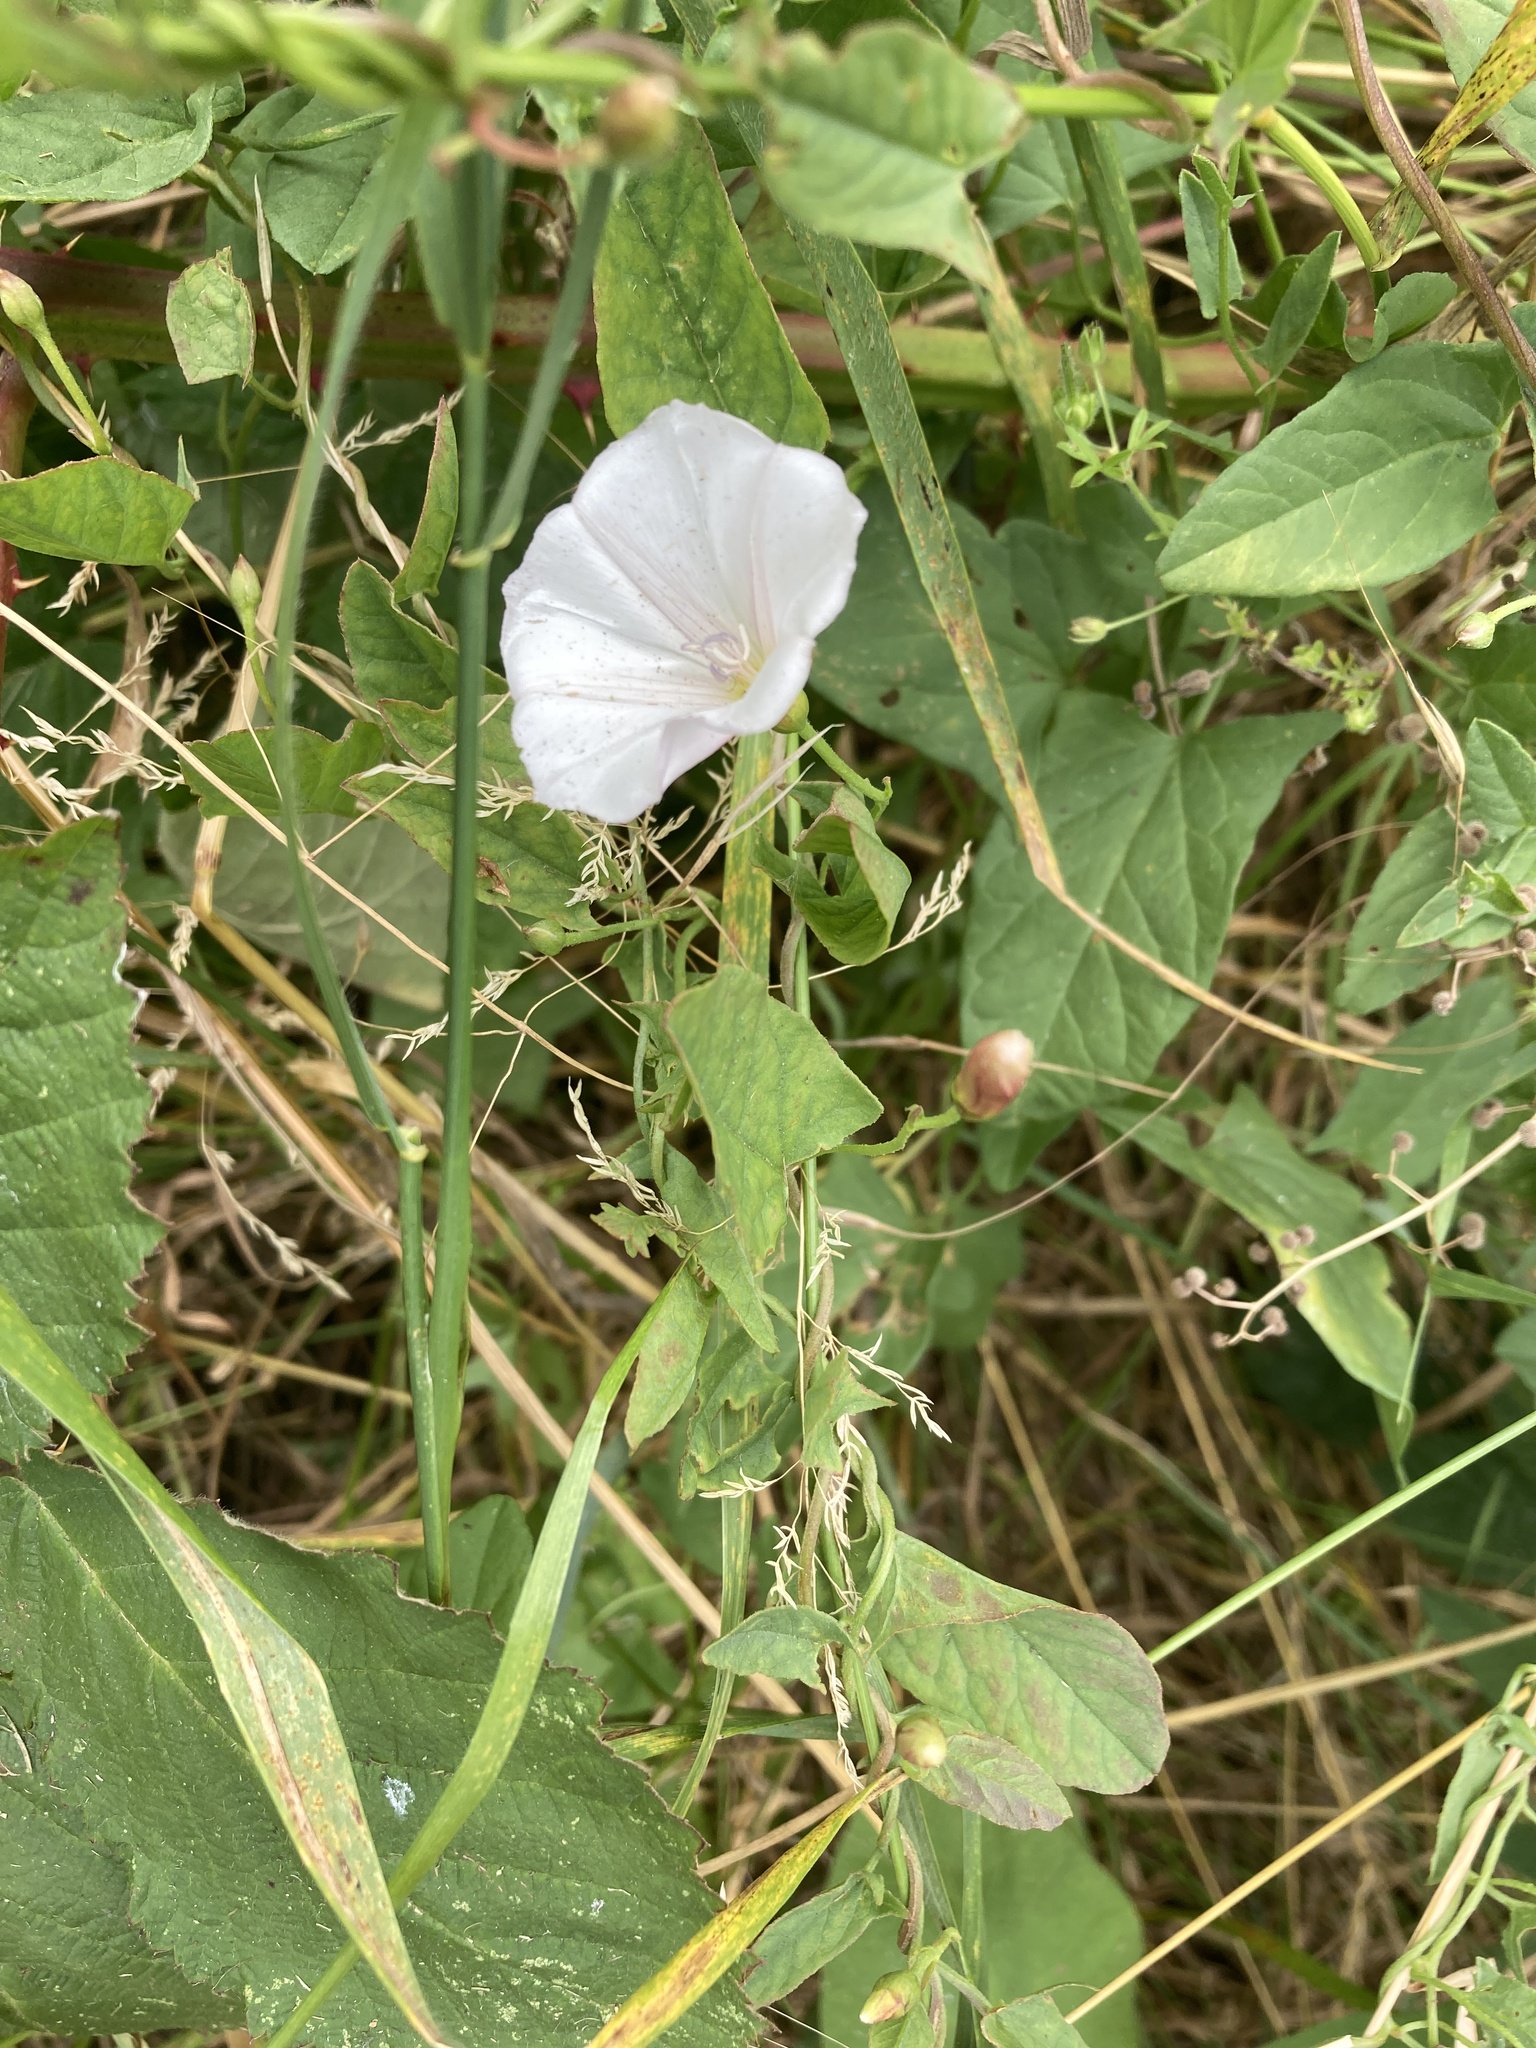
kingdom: Plantae
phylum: Tracheophyta
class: Magnoliopsida
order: Solanales
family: Convolvulaceae
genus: Convolvulus
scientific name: Convolvulus arvensis
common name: Field bindweed
